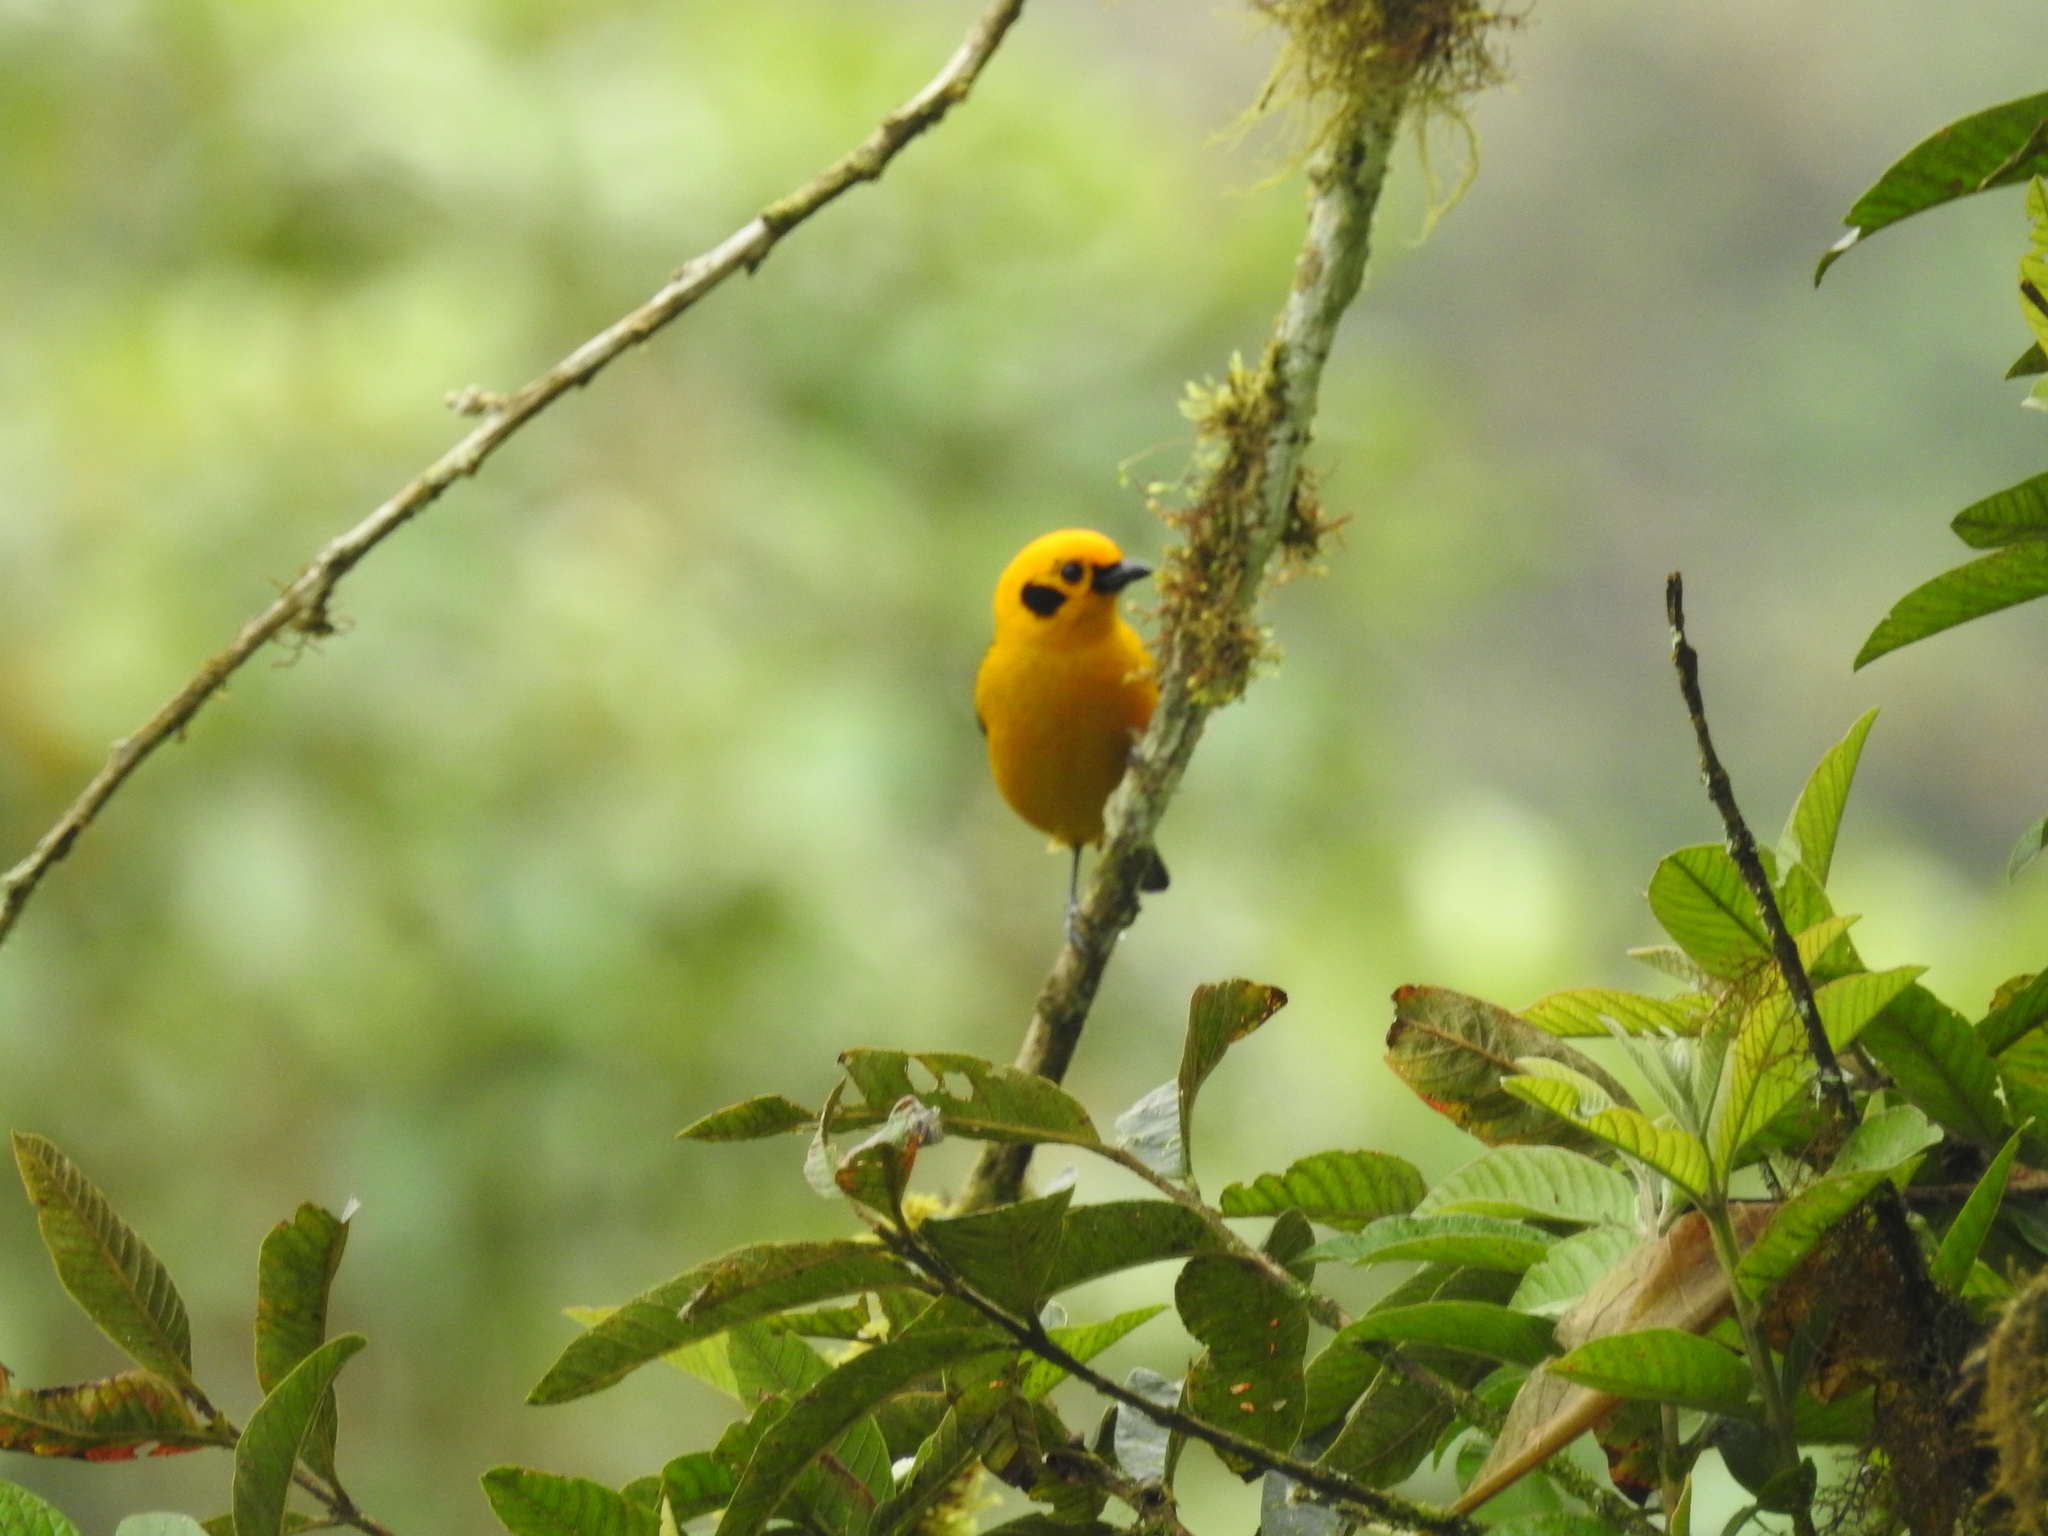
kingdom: Animalia
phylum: Chordata
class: Aves
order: Passeriformes
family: Thraupidae
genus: Tangara
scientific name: Tangara arthus
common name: Golden tanager
